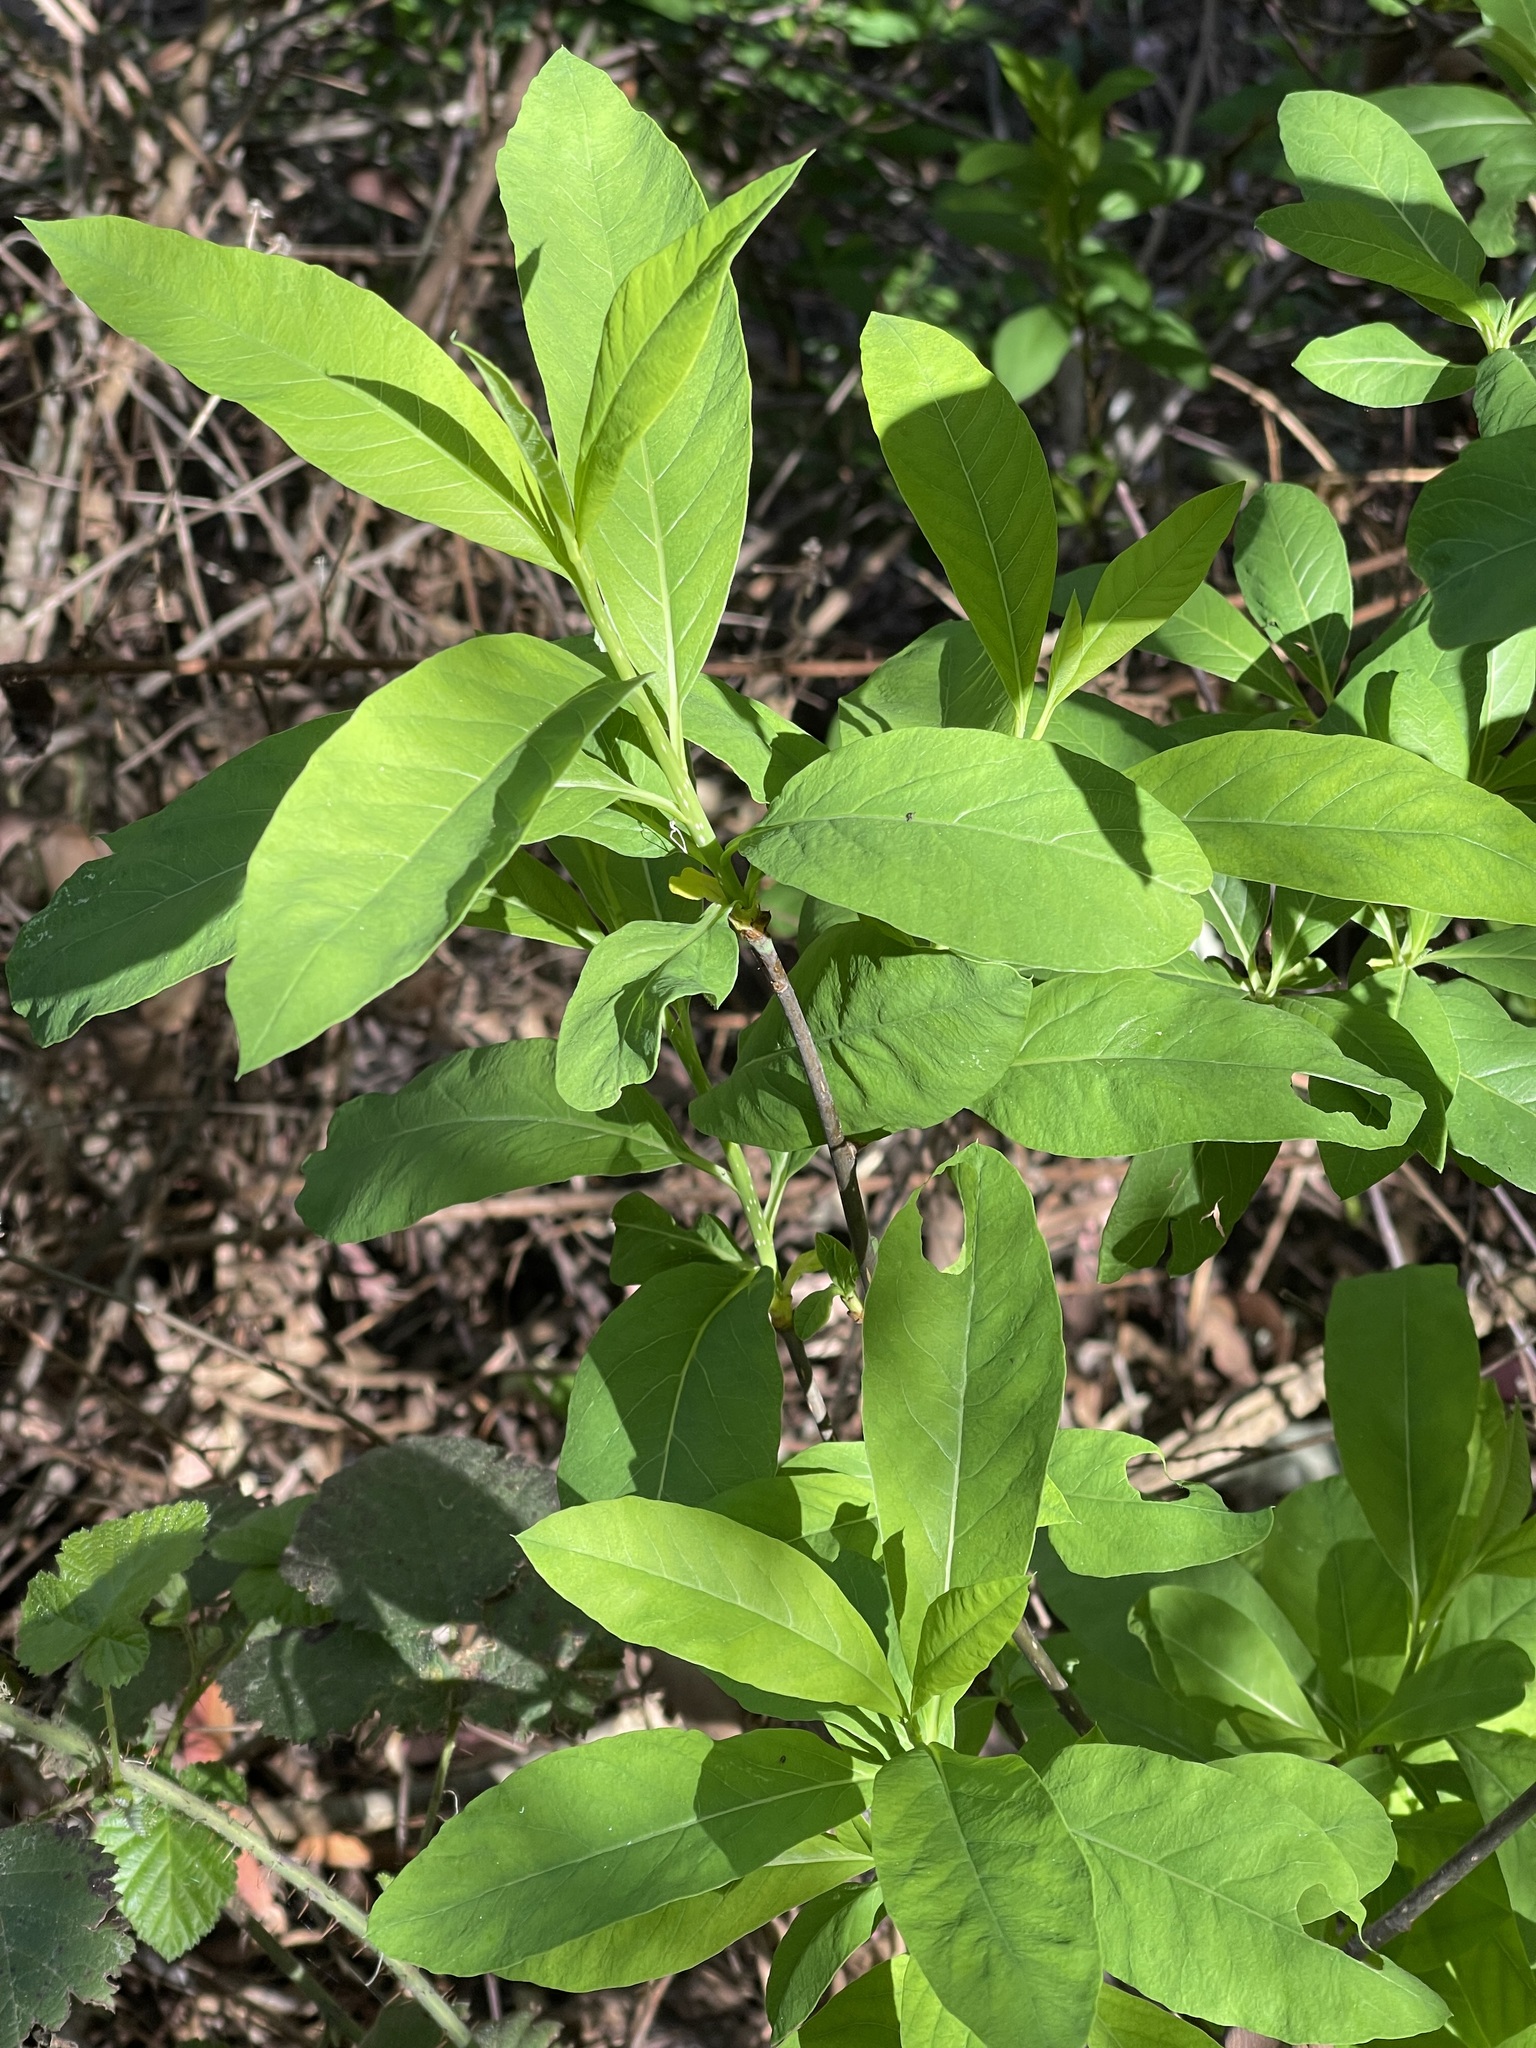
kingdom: Plantae
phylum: Tracheophyta
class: Magnoliopsida
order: Rosales
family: Rosaceae
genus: Oemleria
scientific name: Oemleria cerasiformis
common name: Osoberry
